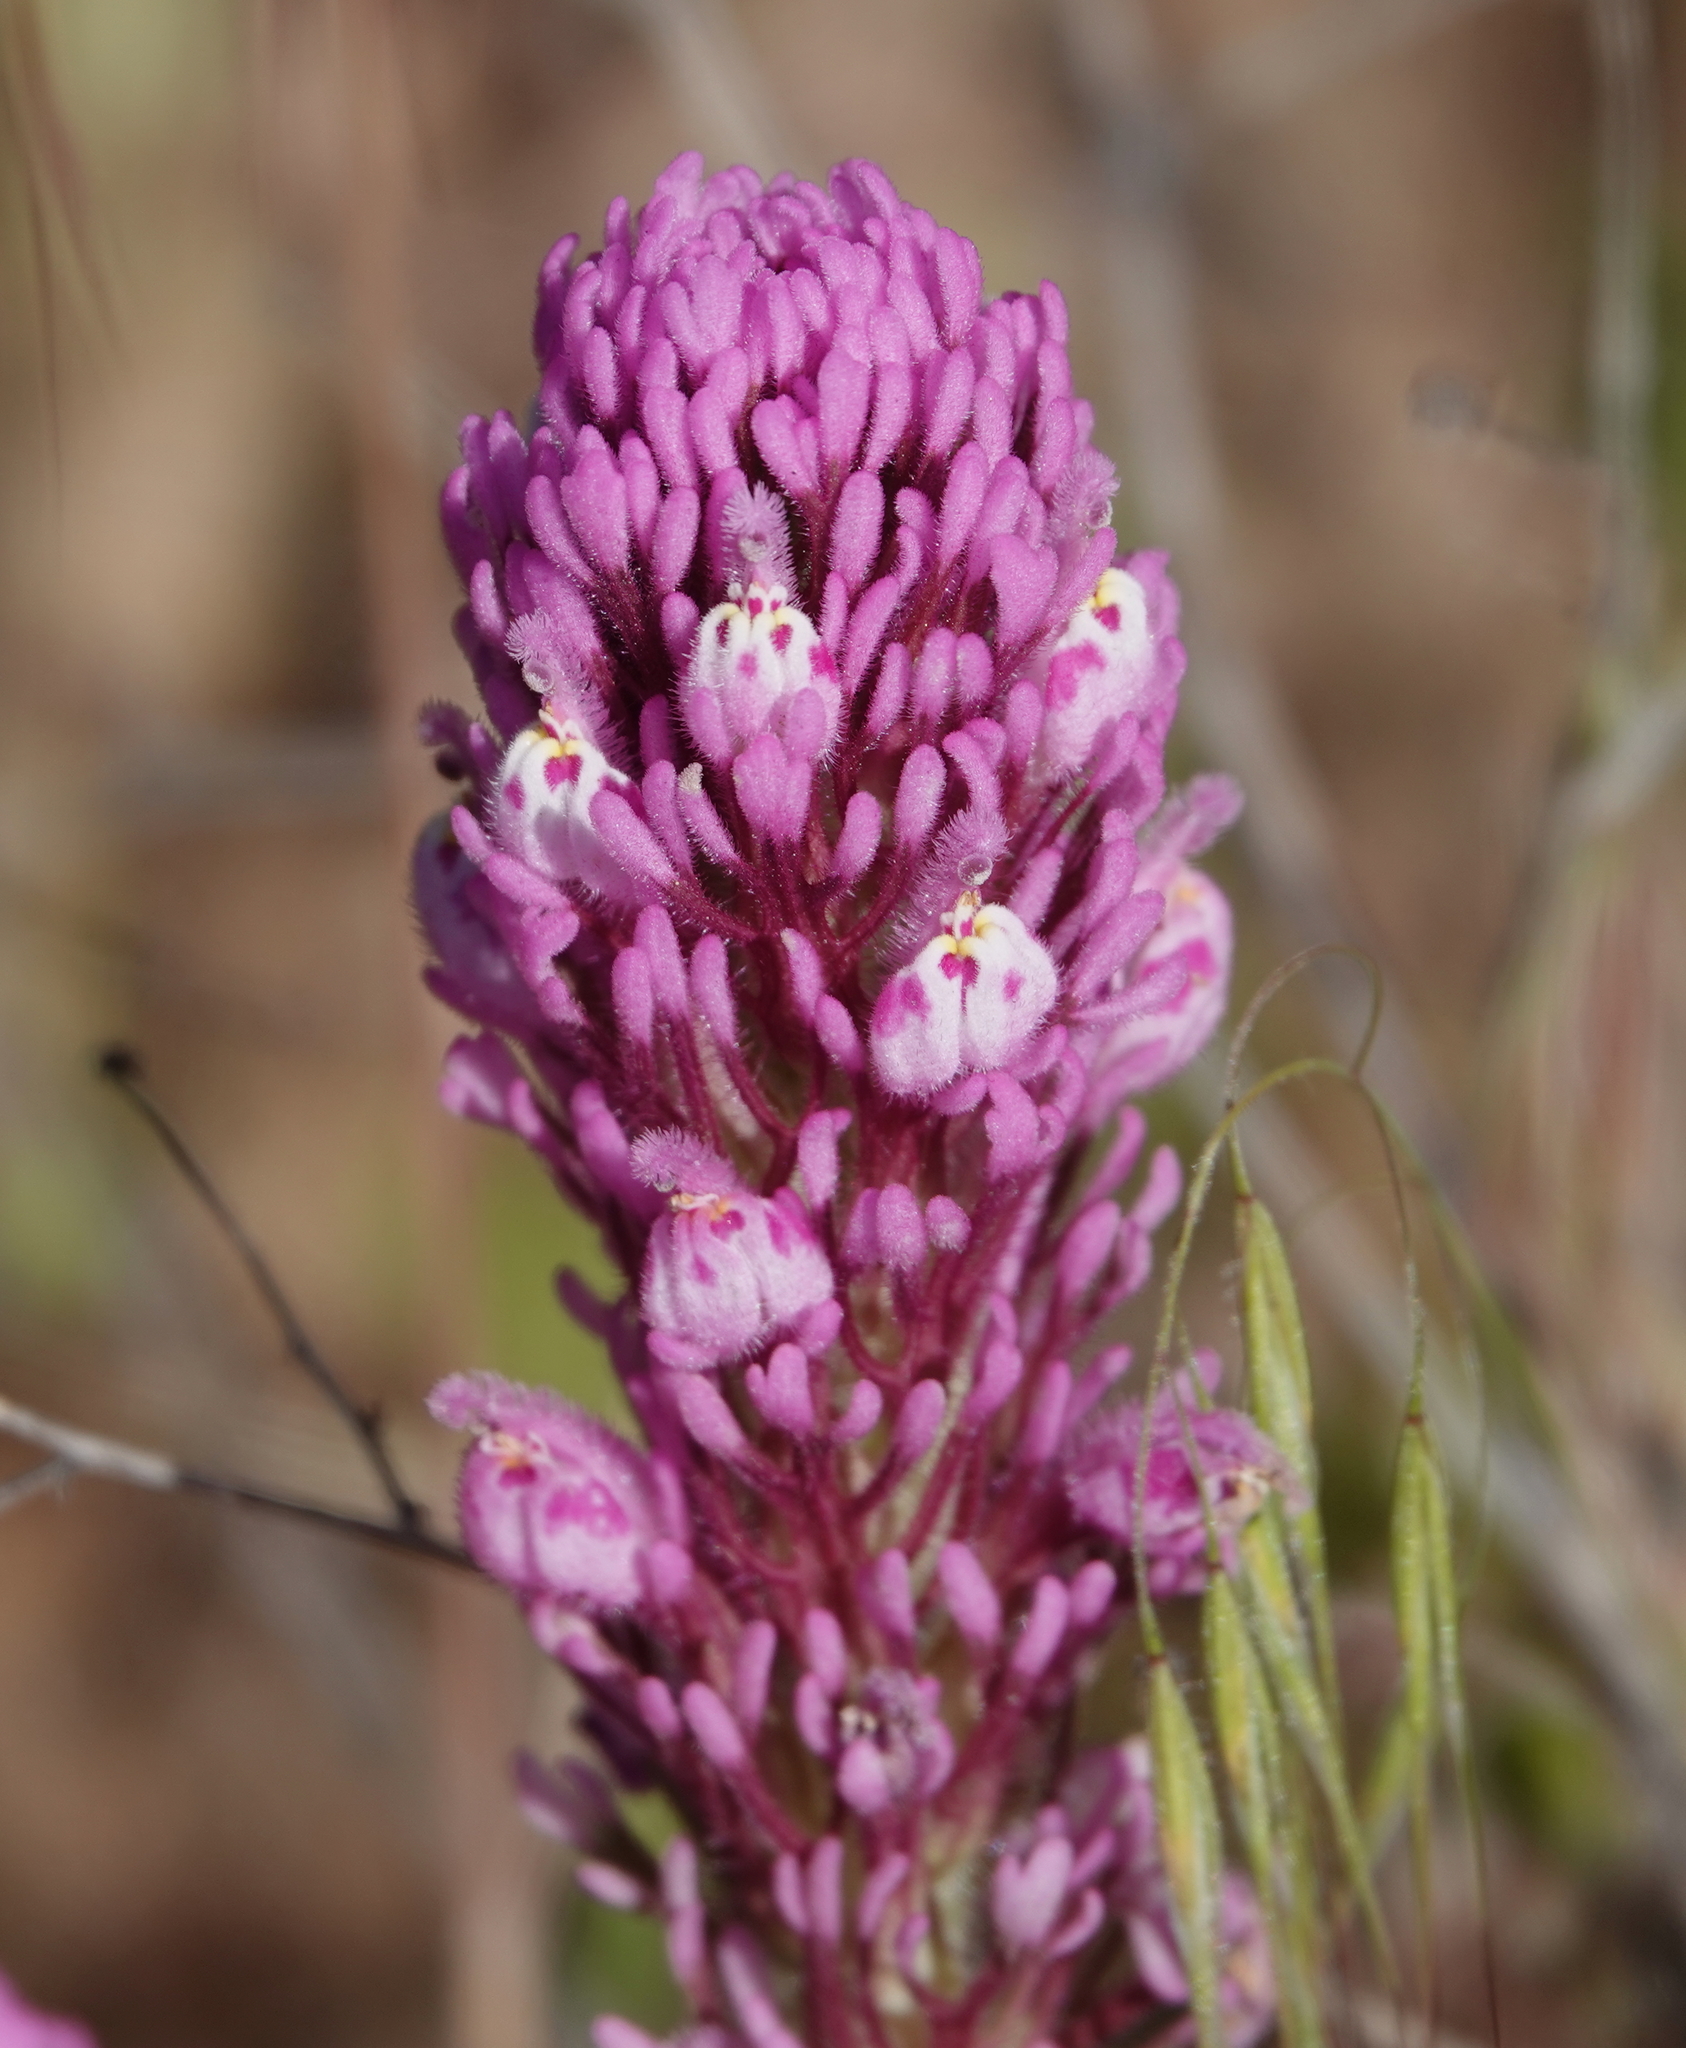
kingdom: Plantae
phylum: Tracheophyta
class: Magnoliopsida
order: Lamiales
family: Orobanchaceae
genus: Castilleja
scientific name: Castilleja exserta
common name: Purple owl-clover
